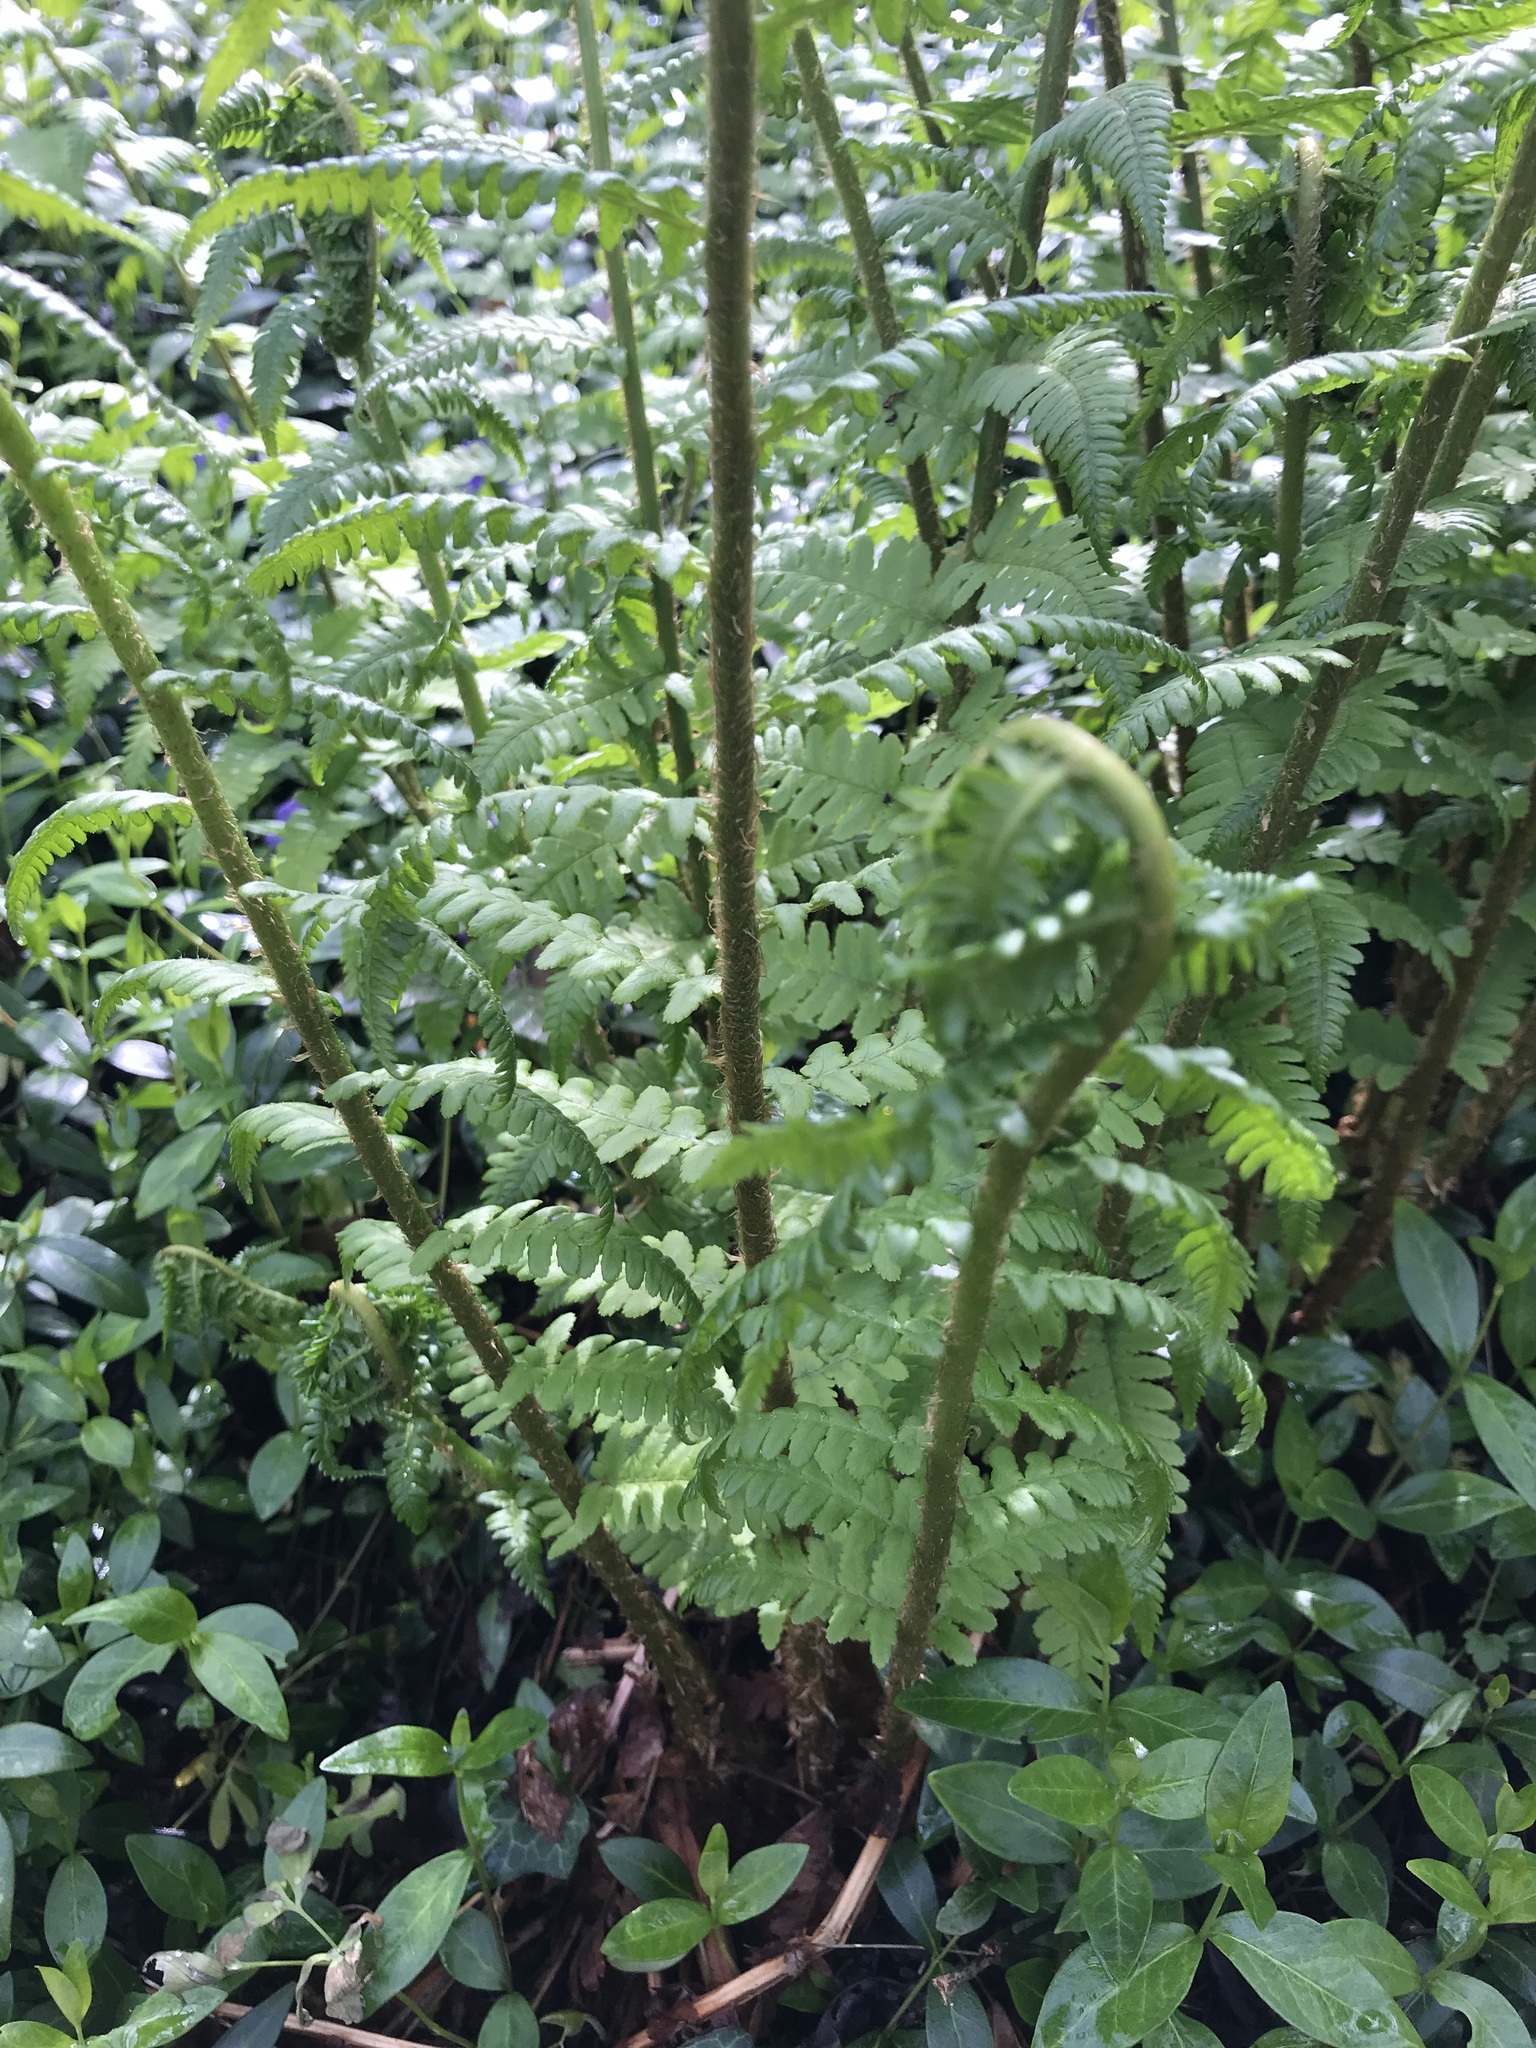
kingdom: Plantae
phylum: Tracheophyta
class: Polypodiopsida
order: Polypodiales
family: Dryopteridaceae
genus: Dryopteris
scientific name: Dryopteris filix-mas
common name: Male fern
